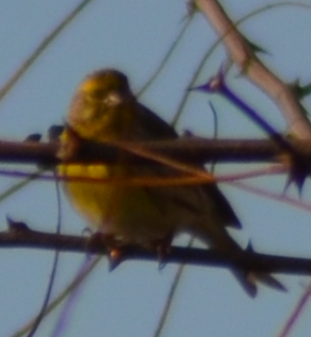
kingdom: Animalia
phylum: Chordata
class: Aves
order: Passeriformes
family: Fringillidae
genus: Serinus
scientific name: Serinus serinus
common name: European serin
